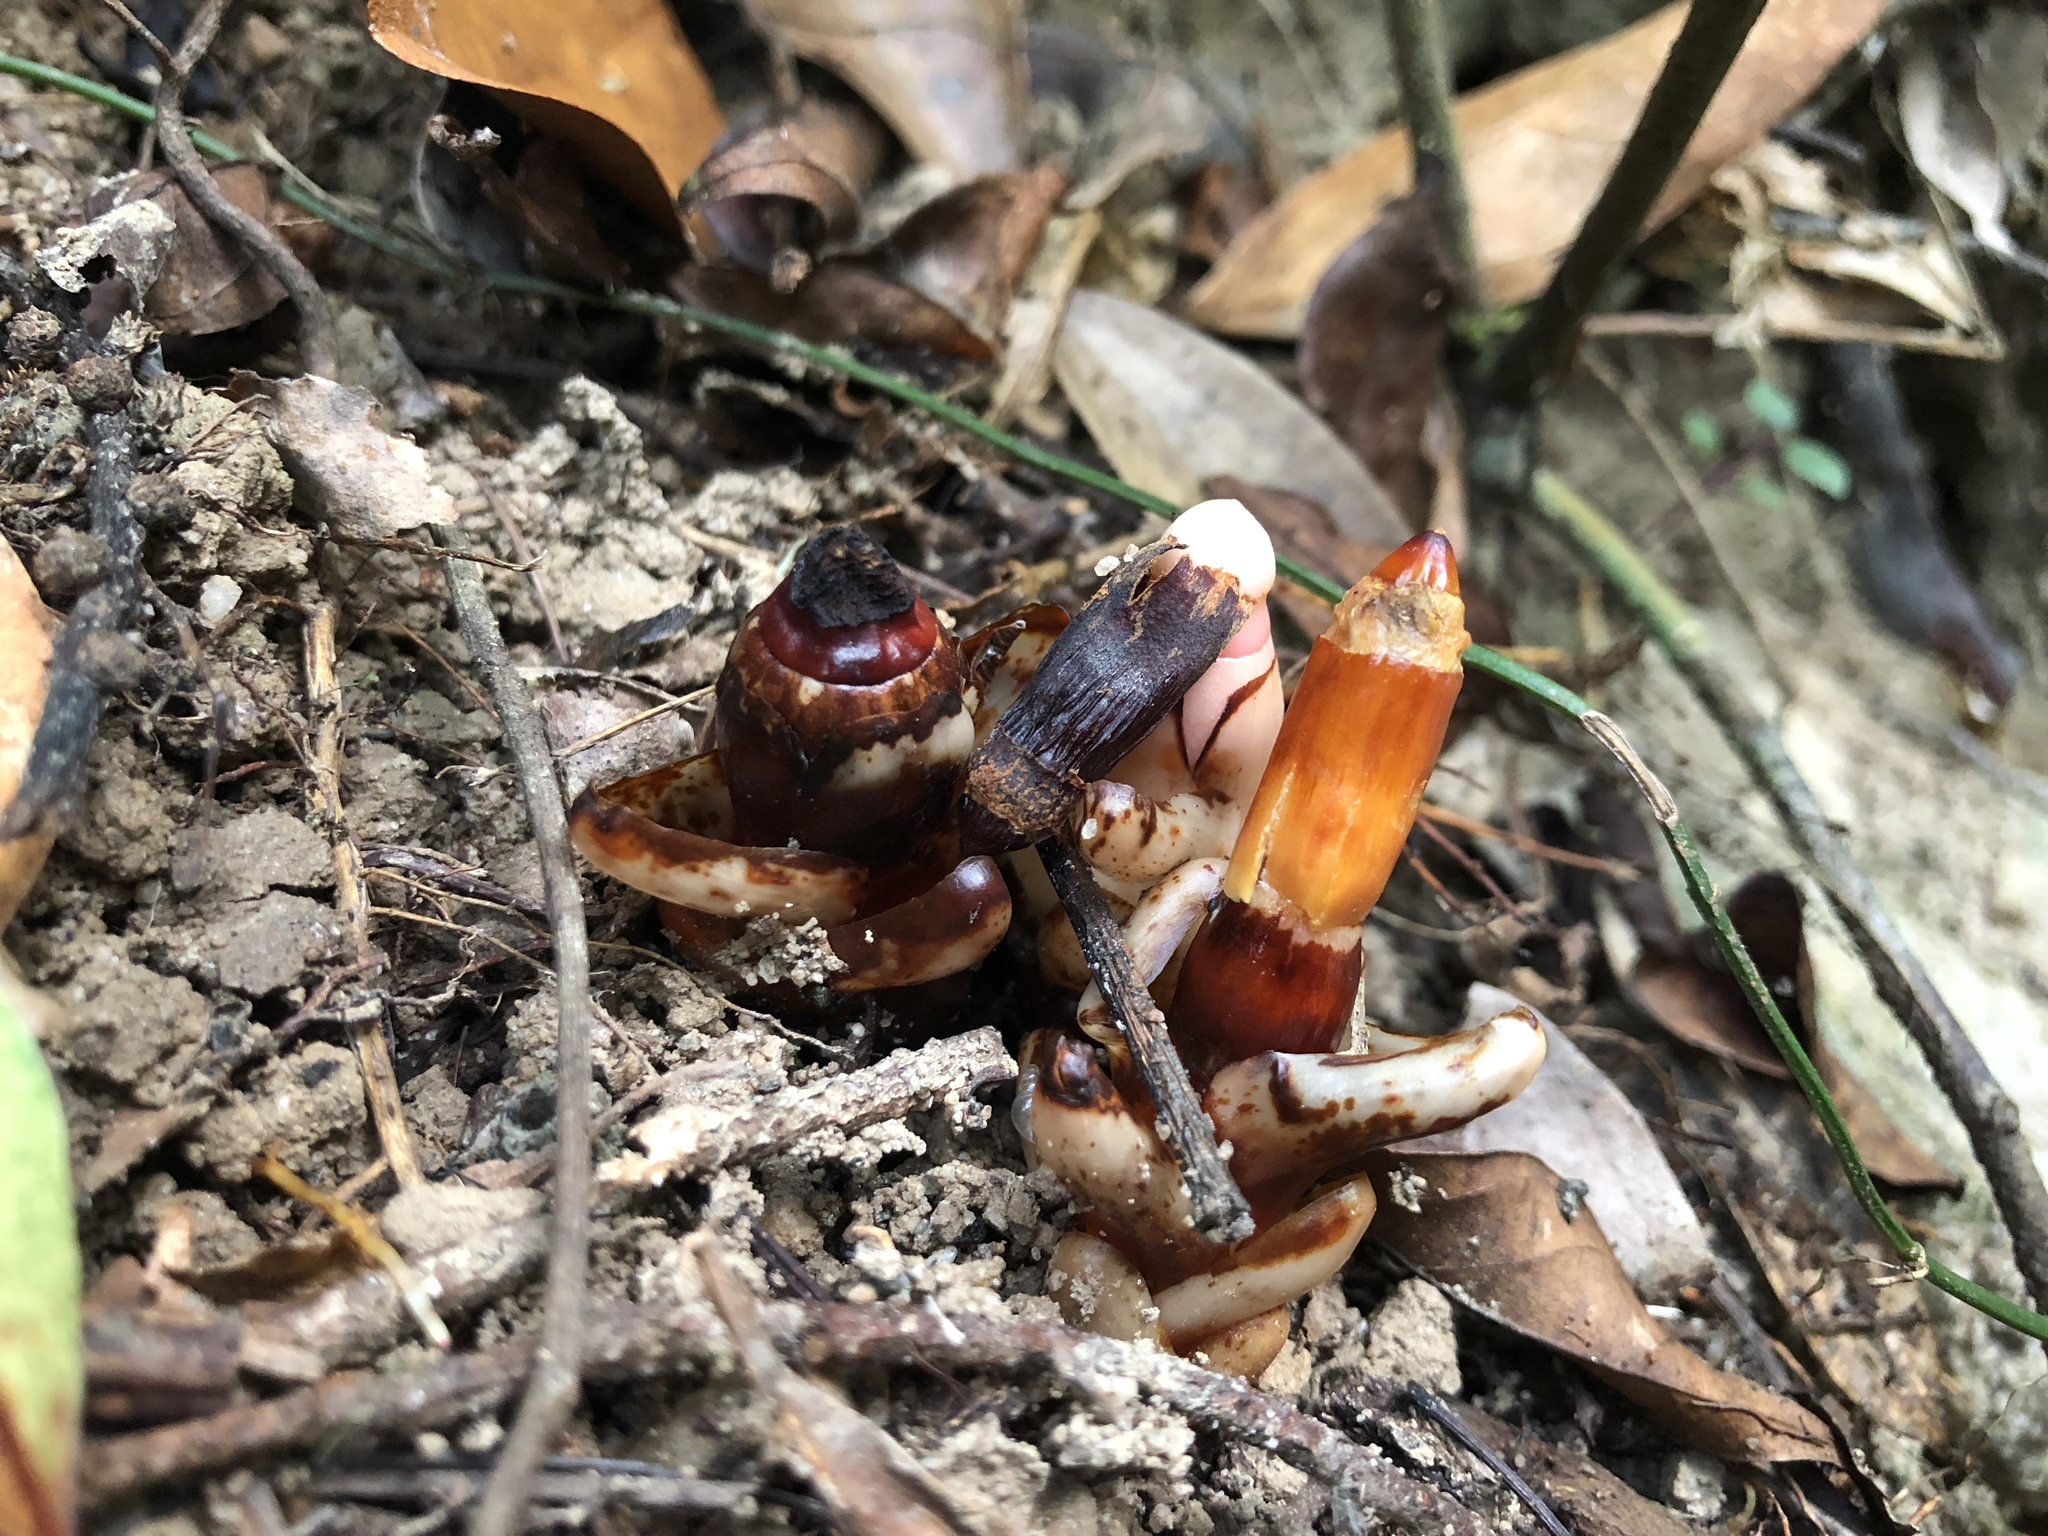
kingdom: Plantae
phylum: Tracheophyta
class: Magnoliopsida
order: Ericales
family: Mitrastemonaceae
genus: Mitrastemon
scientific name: Mitrastemon yamamotoi
